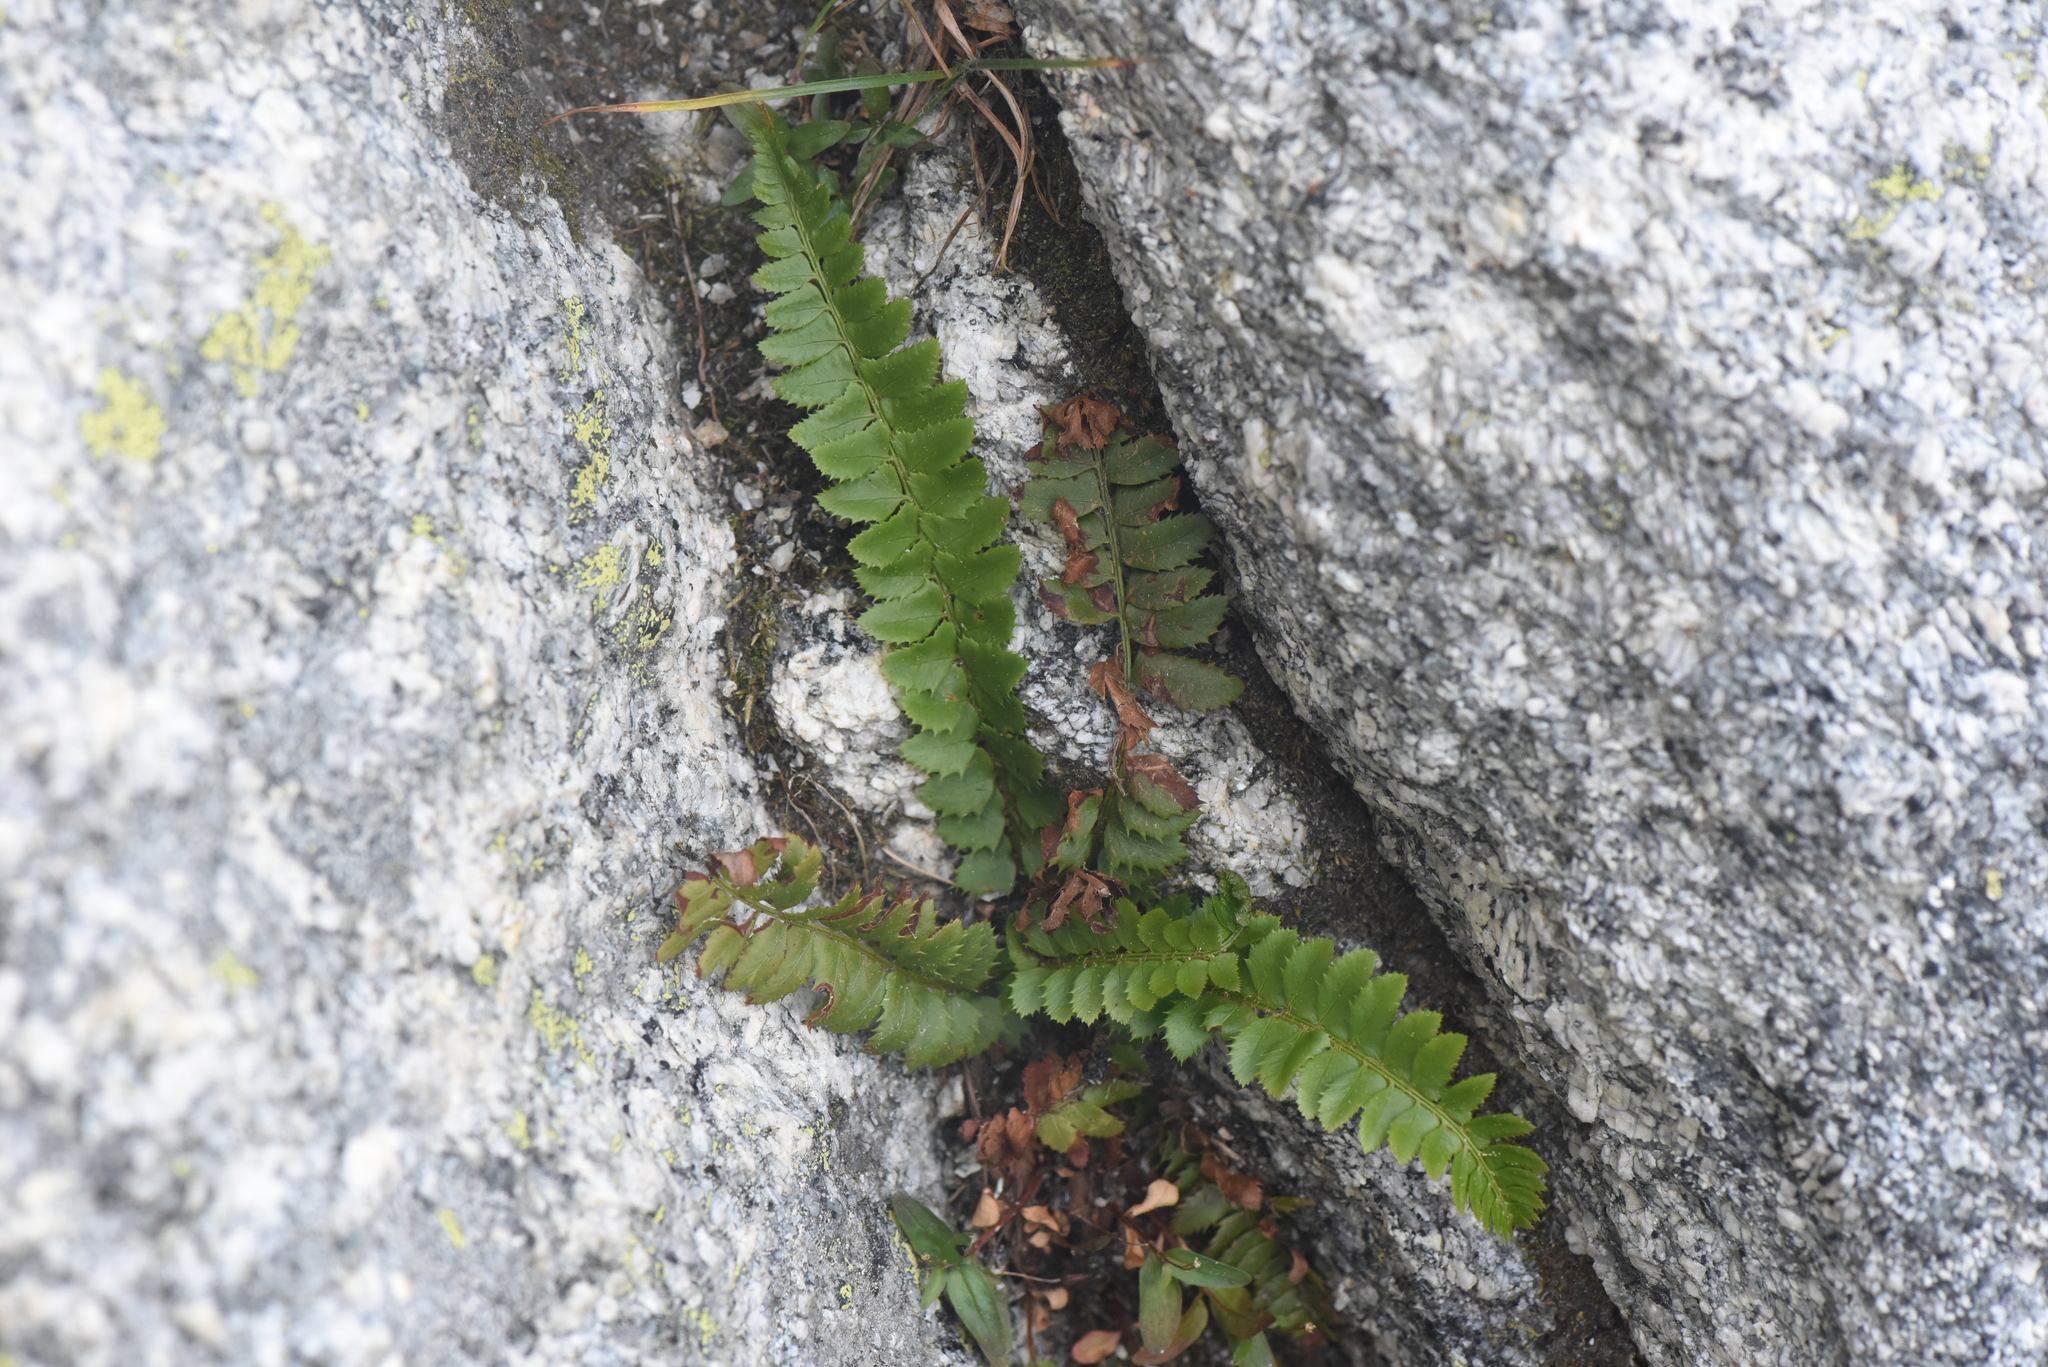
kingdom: Plantae
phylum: Tracheophyta
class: Polypodiopsida
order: Polypodiales
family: Dryopteridaceae
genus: Polystichum
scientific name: Polystichum lonchitis
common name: Holly fern
